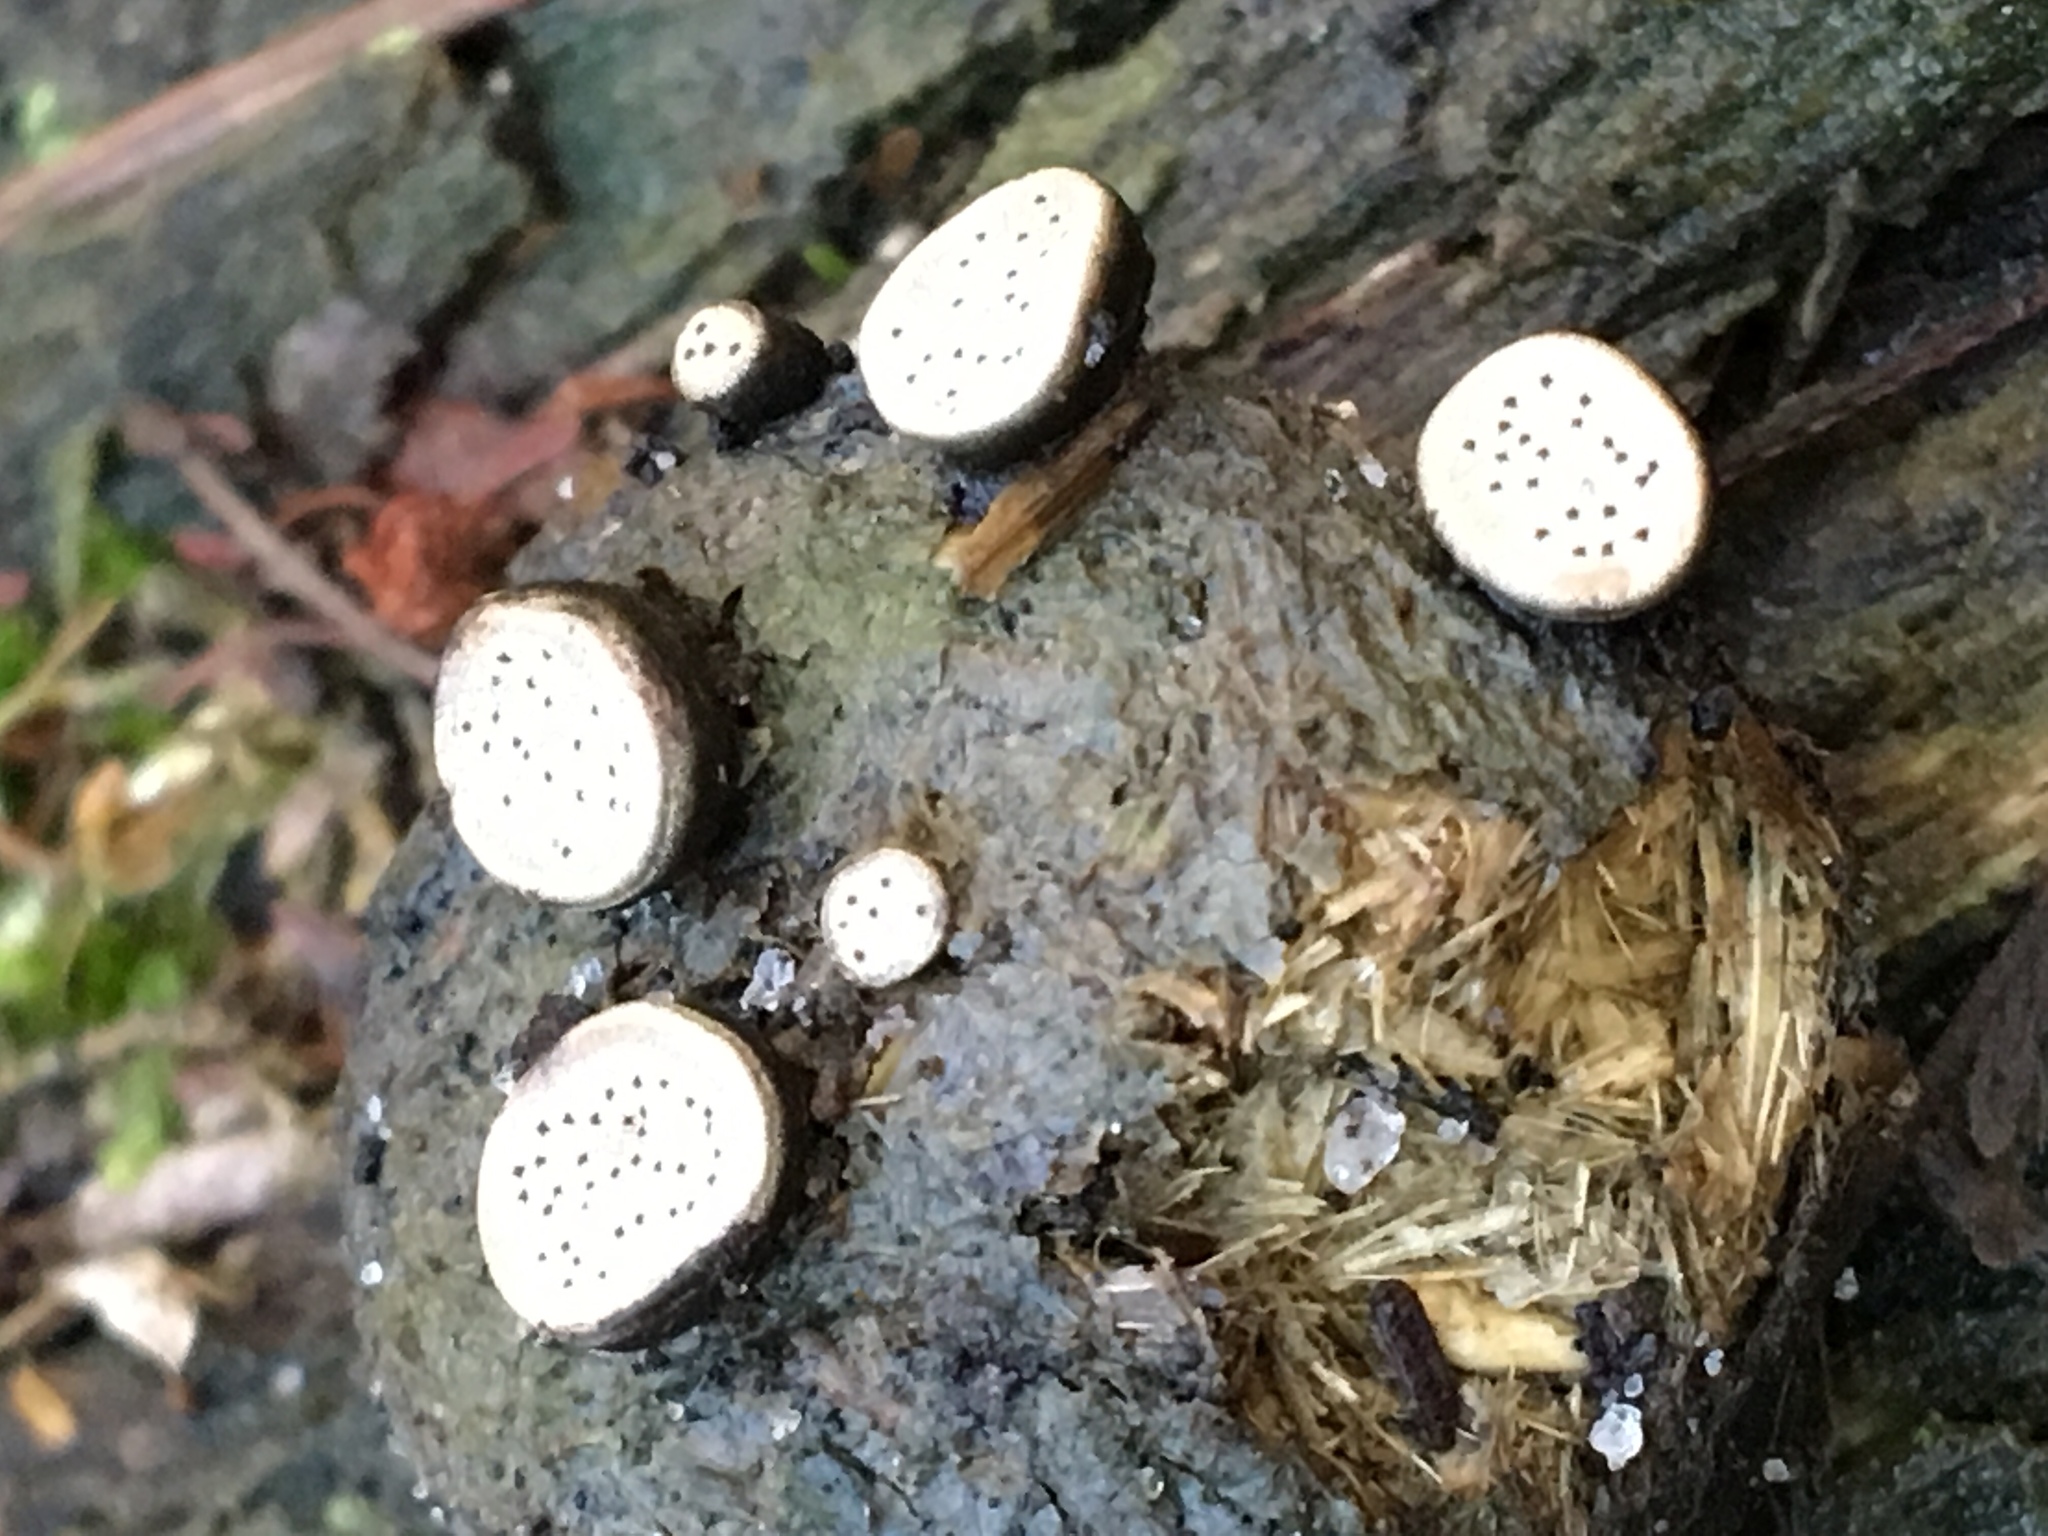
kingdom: Fungi
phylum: Ascomycota
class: Sordariomycetes
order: Xylariales
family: Xylariaceae
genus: Poronia
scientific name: Poronia erici
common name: Dung button
